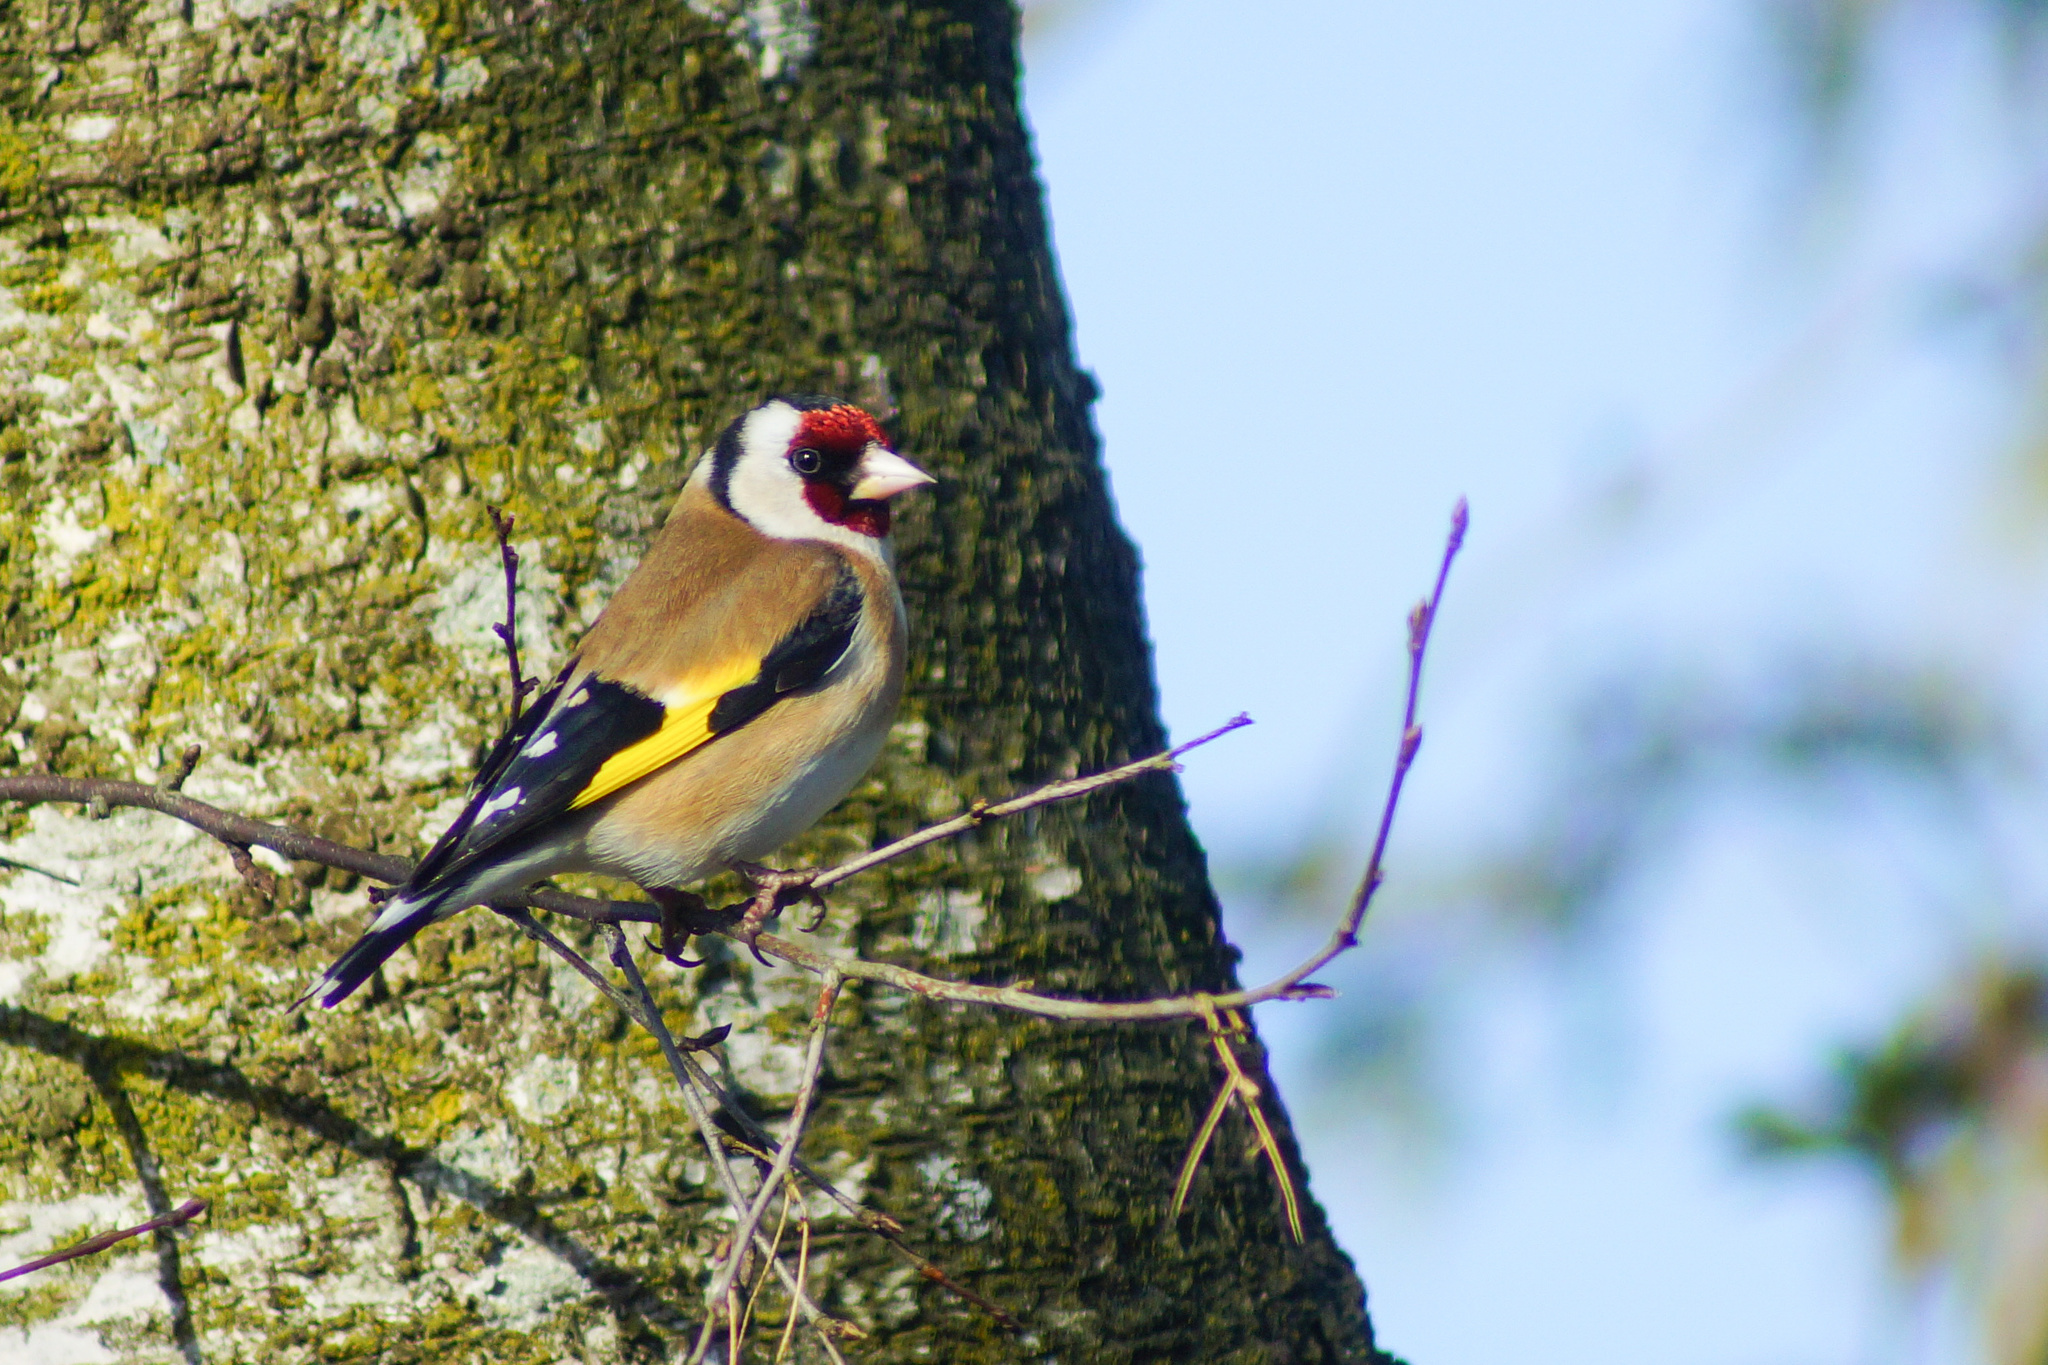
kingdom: Animalia
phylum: Chordata
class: Aves
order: Passeriformes
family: Fringillidae
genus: Carduelis
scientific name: Carduelis carduelis
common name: European goldfinch
